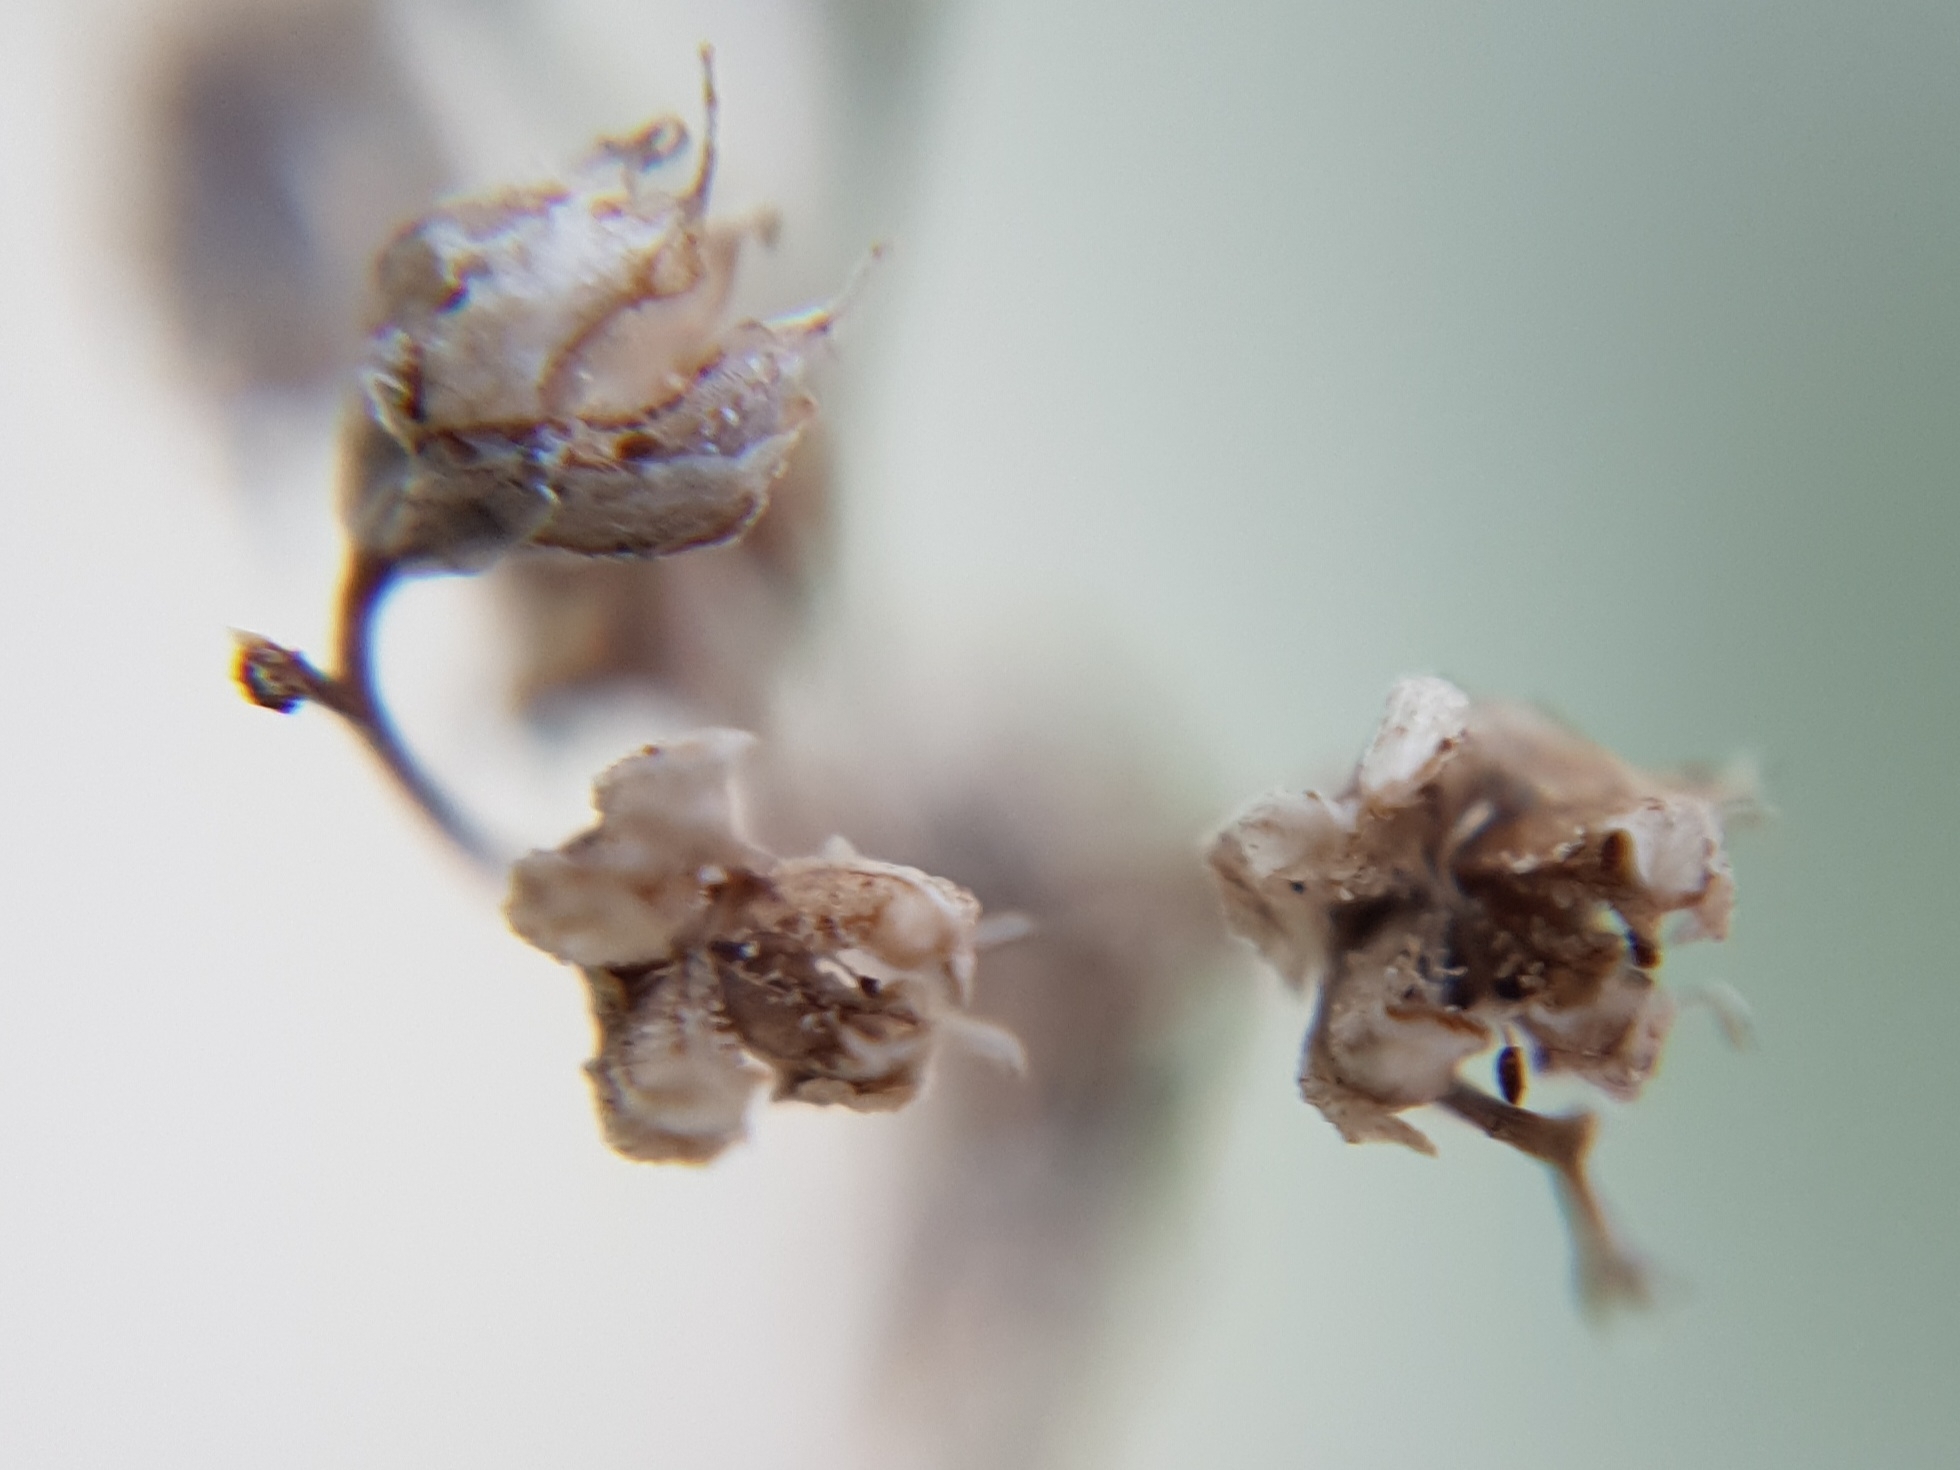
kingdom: Plantae
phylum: Tracheophyta
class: Magnoliopsida
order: Saxifragales
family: Crassulaceae
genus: Sedum
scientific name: Sedum album
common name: White stonecrop
